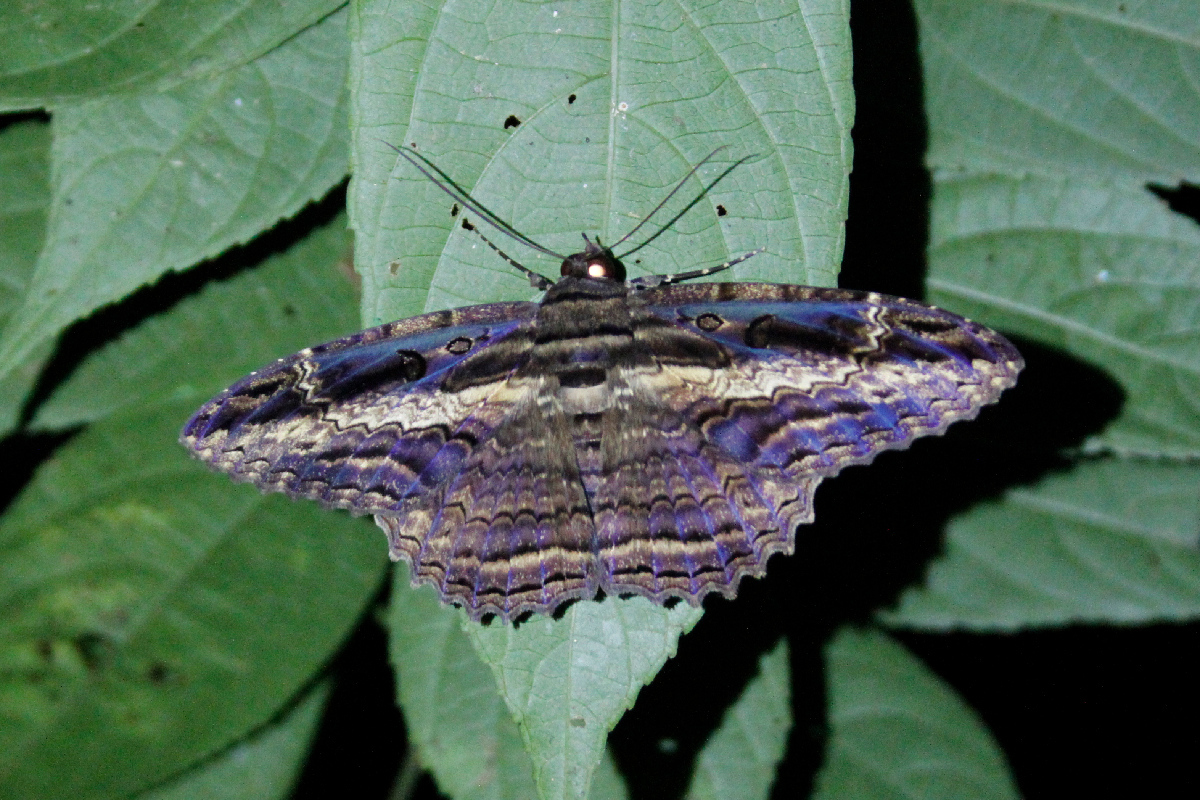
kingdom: Animalia
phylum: Arthropoda
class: Insecta
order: Lepidoptera
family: Erebidae
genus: Feigeria
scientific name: Feigeria buteo
